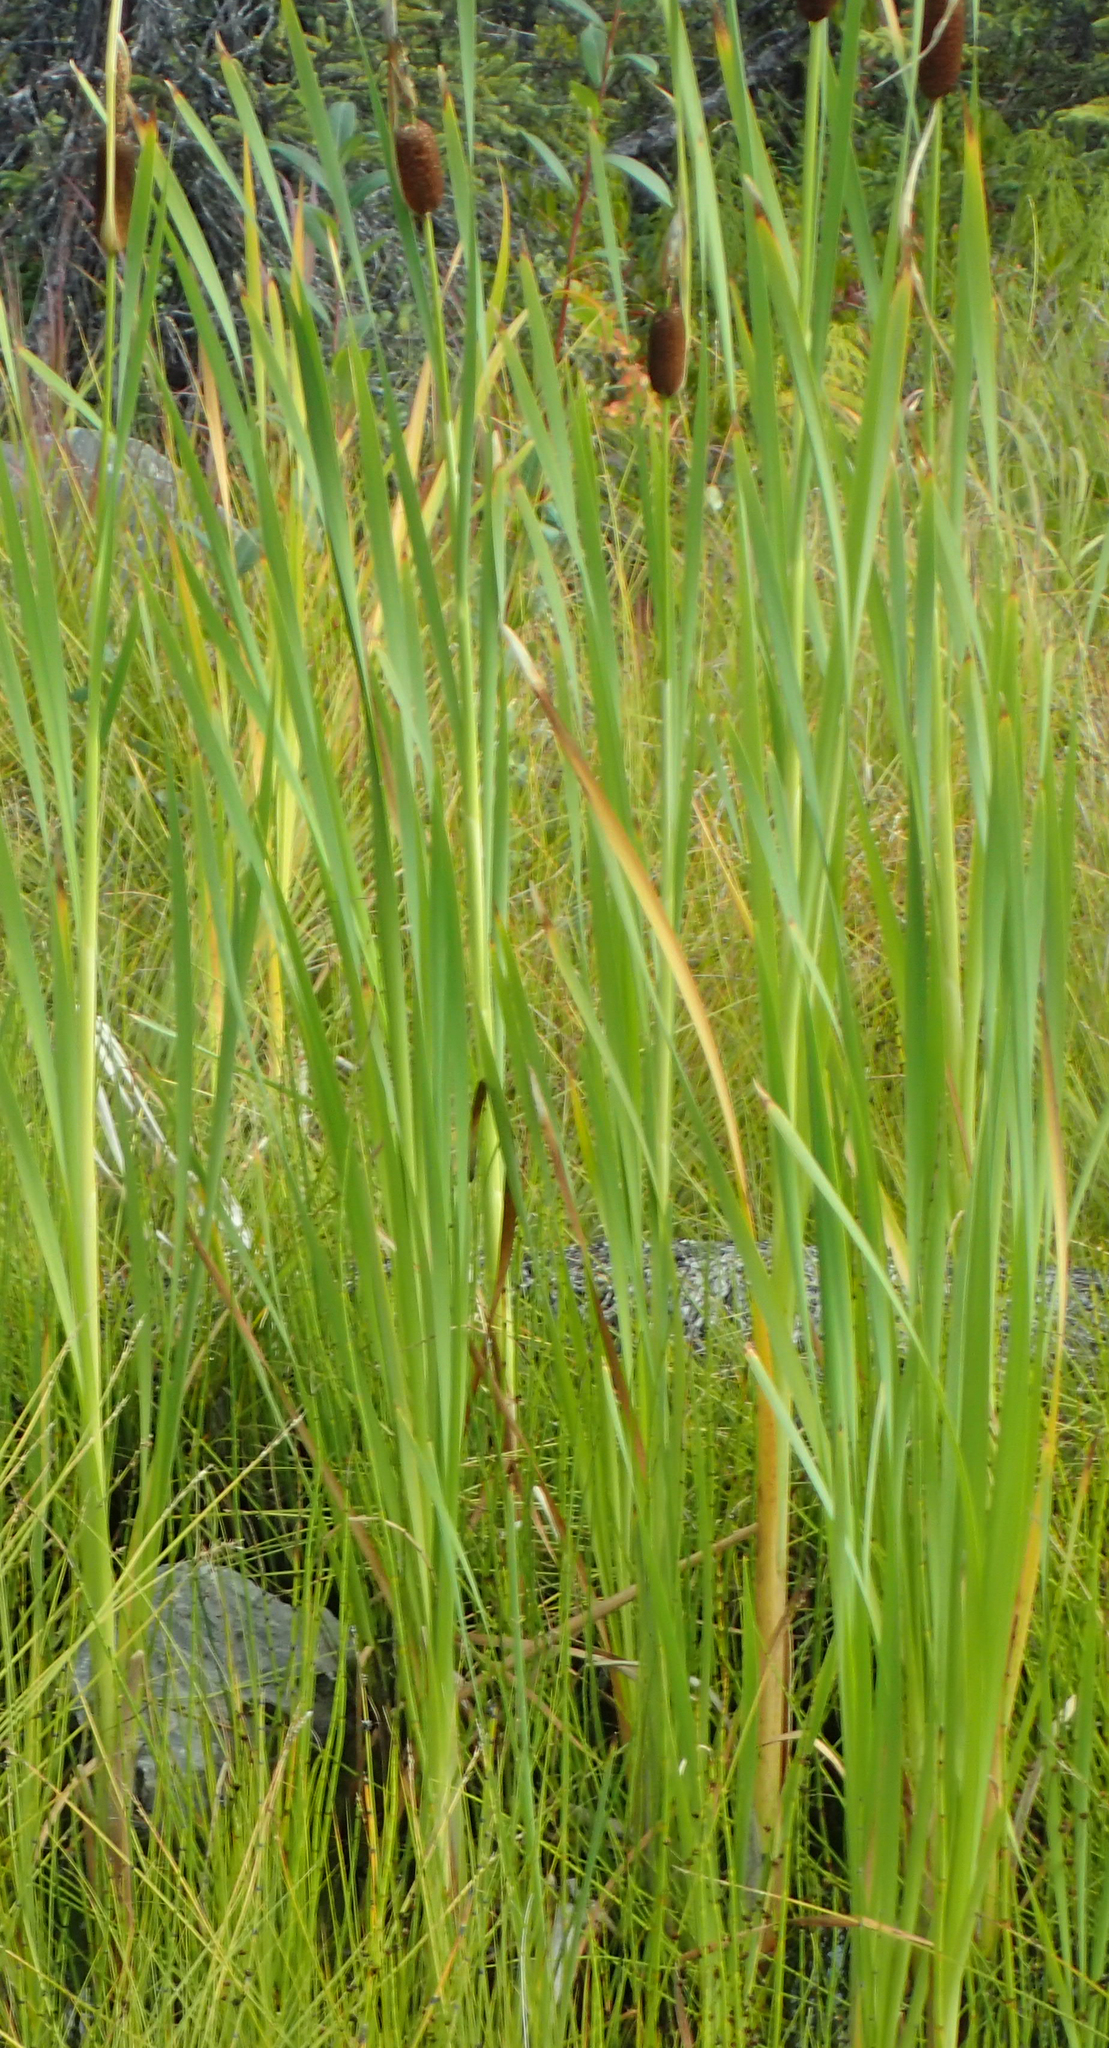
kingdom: Plantae
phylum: Tracheophyta
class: Liliopsida
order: Poales
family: Typhaceae
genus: Typha
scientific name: Typha latifolia
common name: Broadleaf cattail
